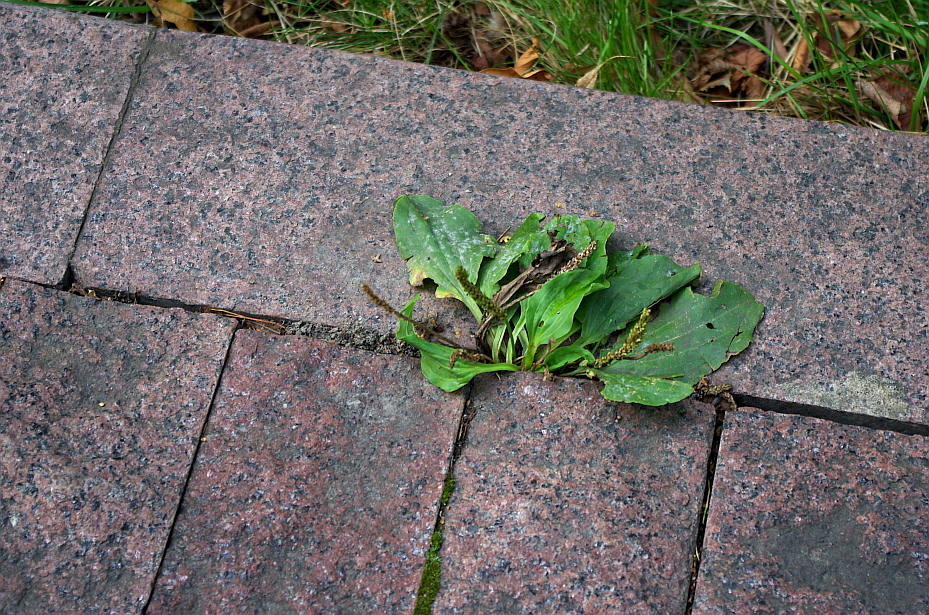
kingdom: Plantae
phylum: Tracheophyta
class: Magnoliopsida
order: Lamiales
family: Plantaginaceae
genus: Plantago
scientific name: Plantago major
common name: Common plantain
